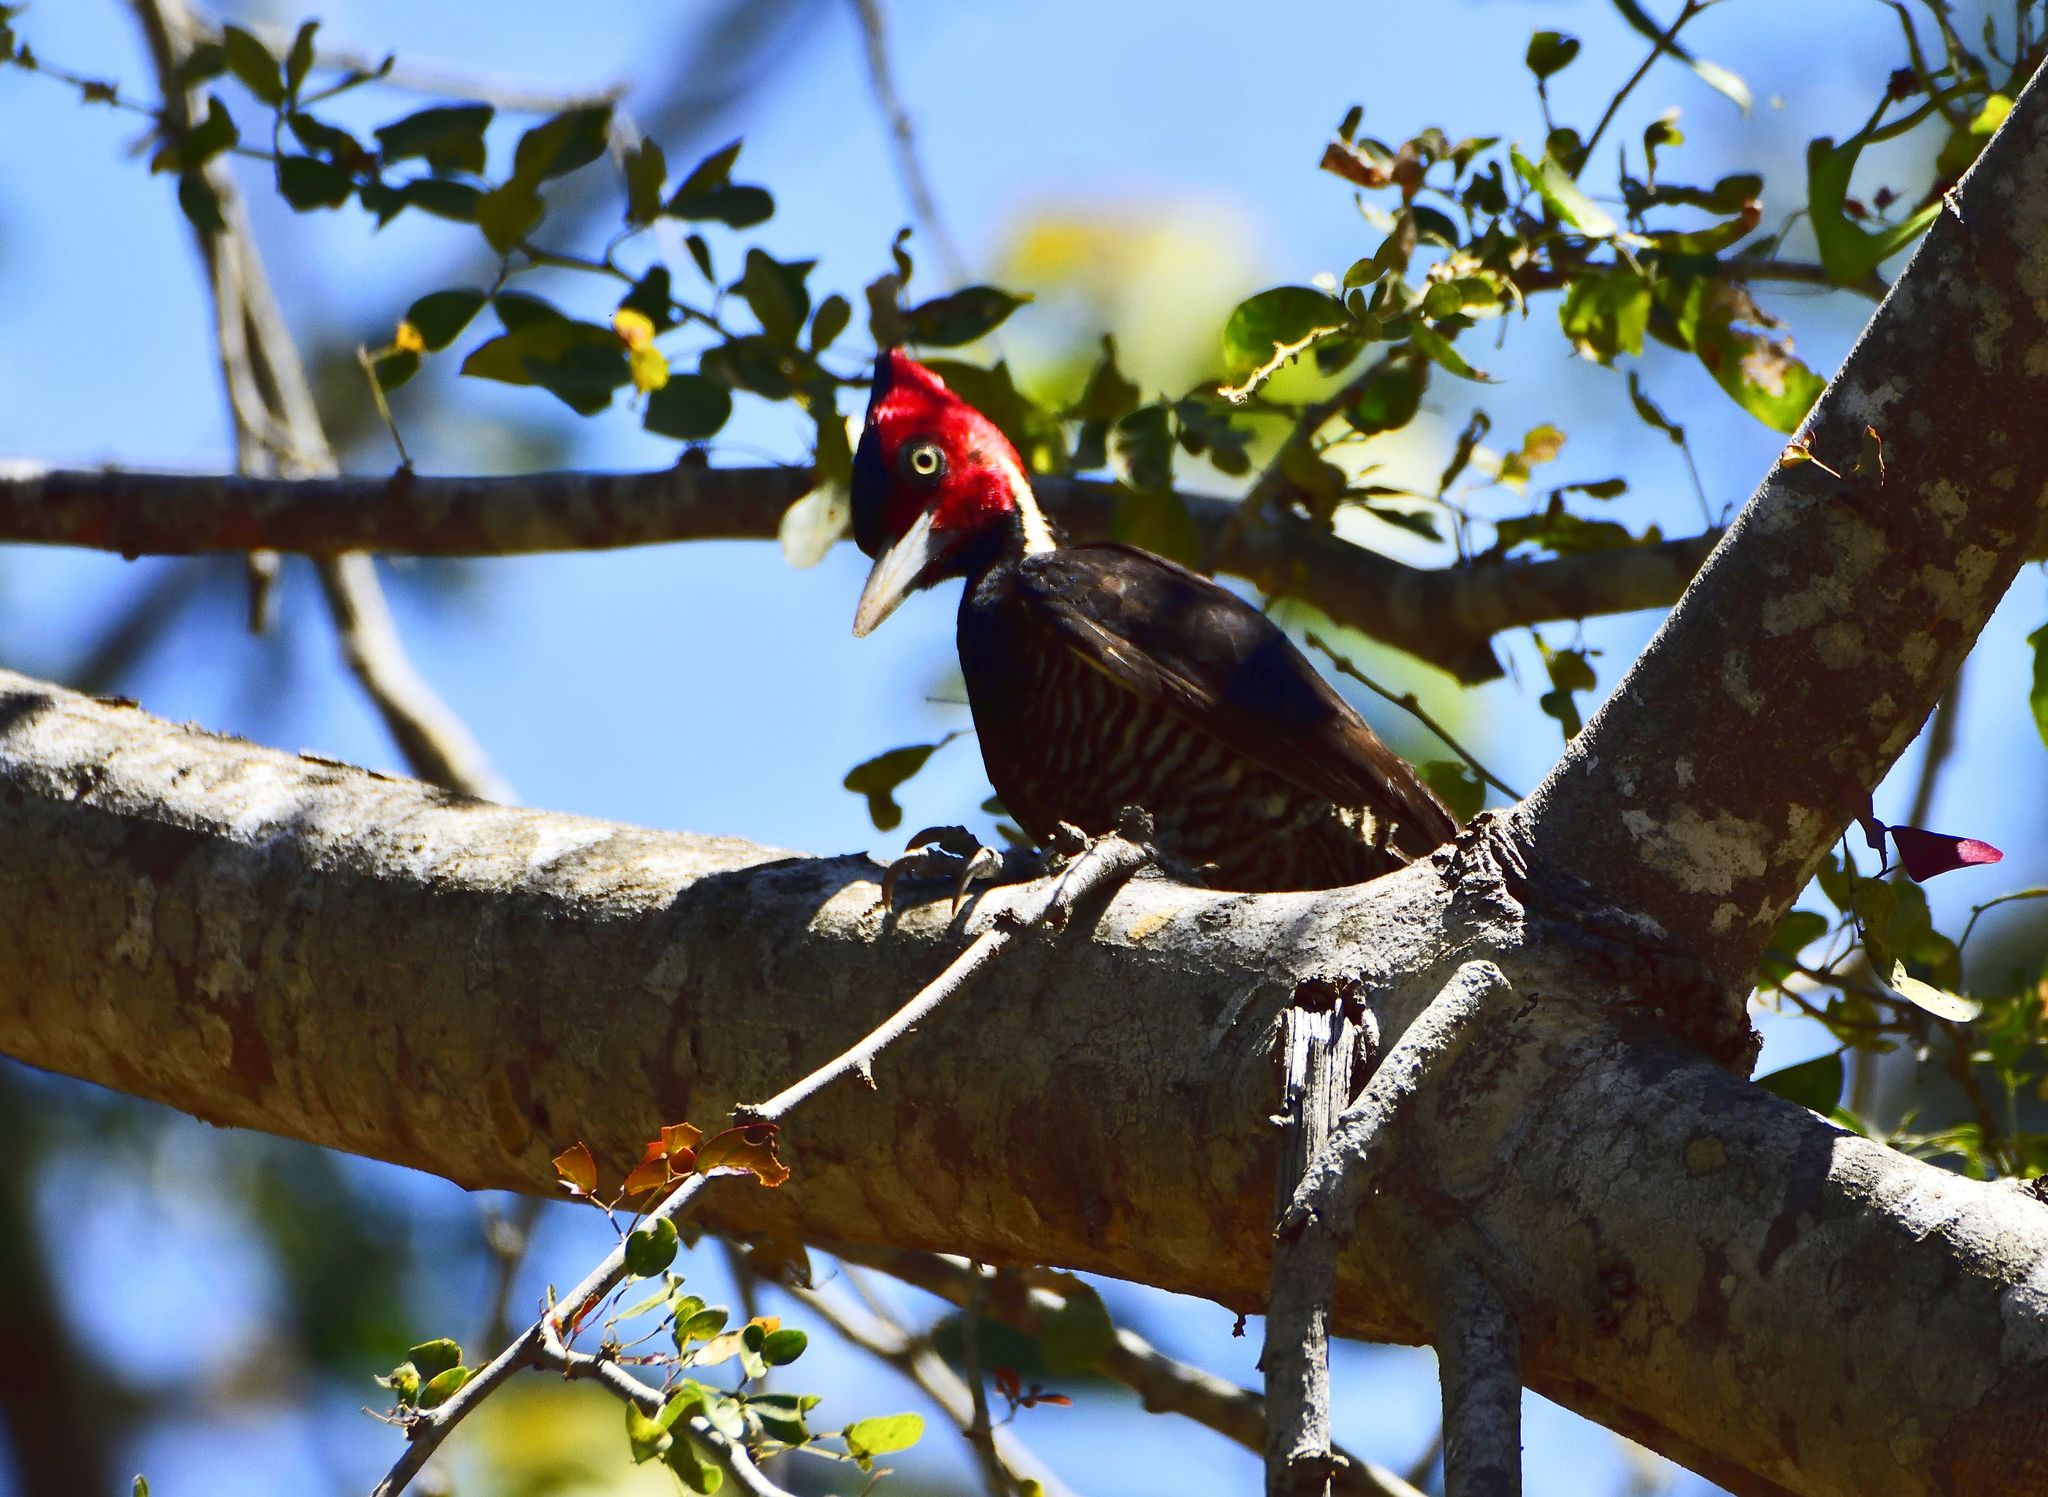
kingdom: Animalia
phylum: Chordata
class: Aves
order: Piciformes
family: Picidae
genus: Campephilus
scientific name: Campephilus guatemalensis
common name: Pale-billed woodpecker
